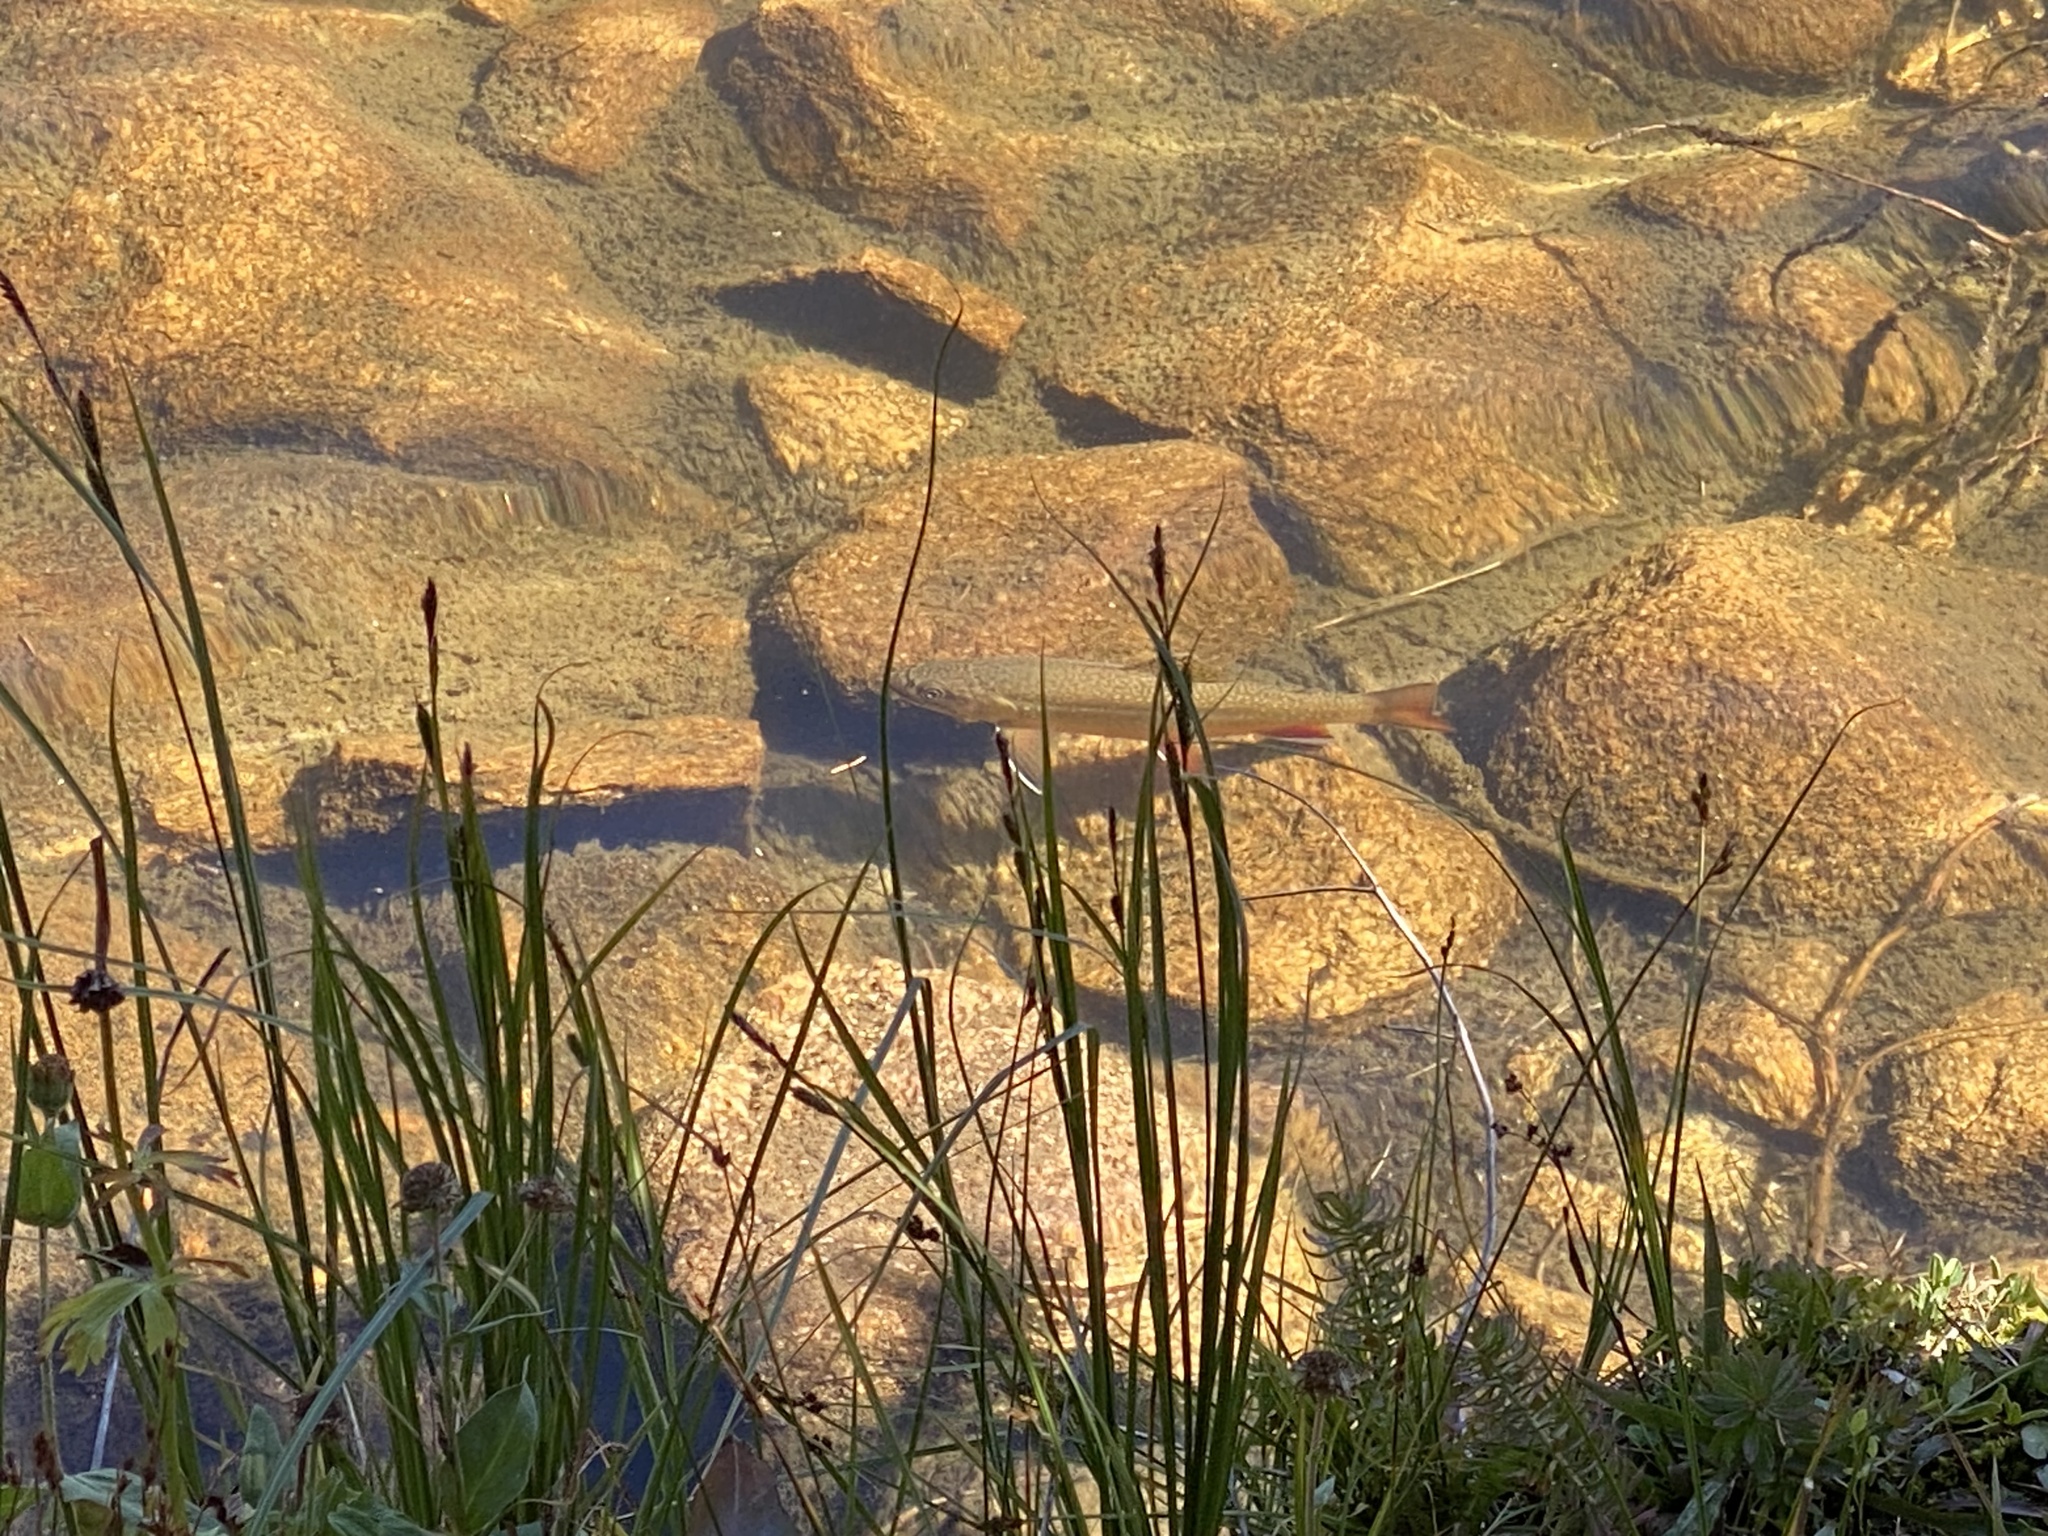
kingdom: Animalia
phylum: Chordata
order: Salmoniformes
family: Salmonidae
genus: Salvelinus
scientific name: Salvelinus fontinalis
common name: Brook trout
